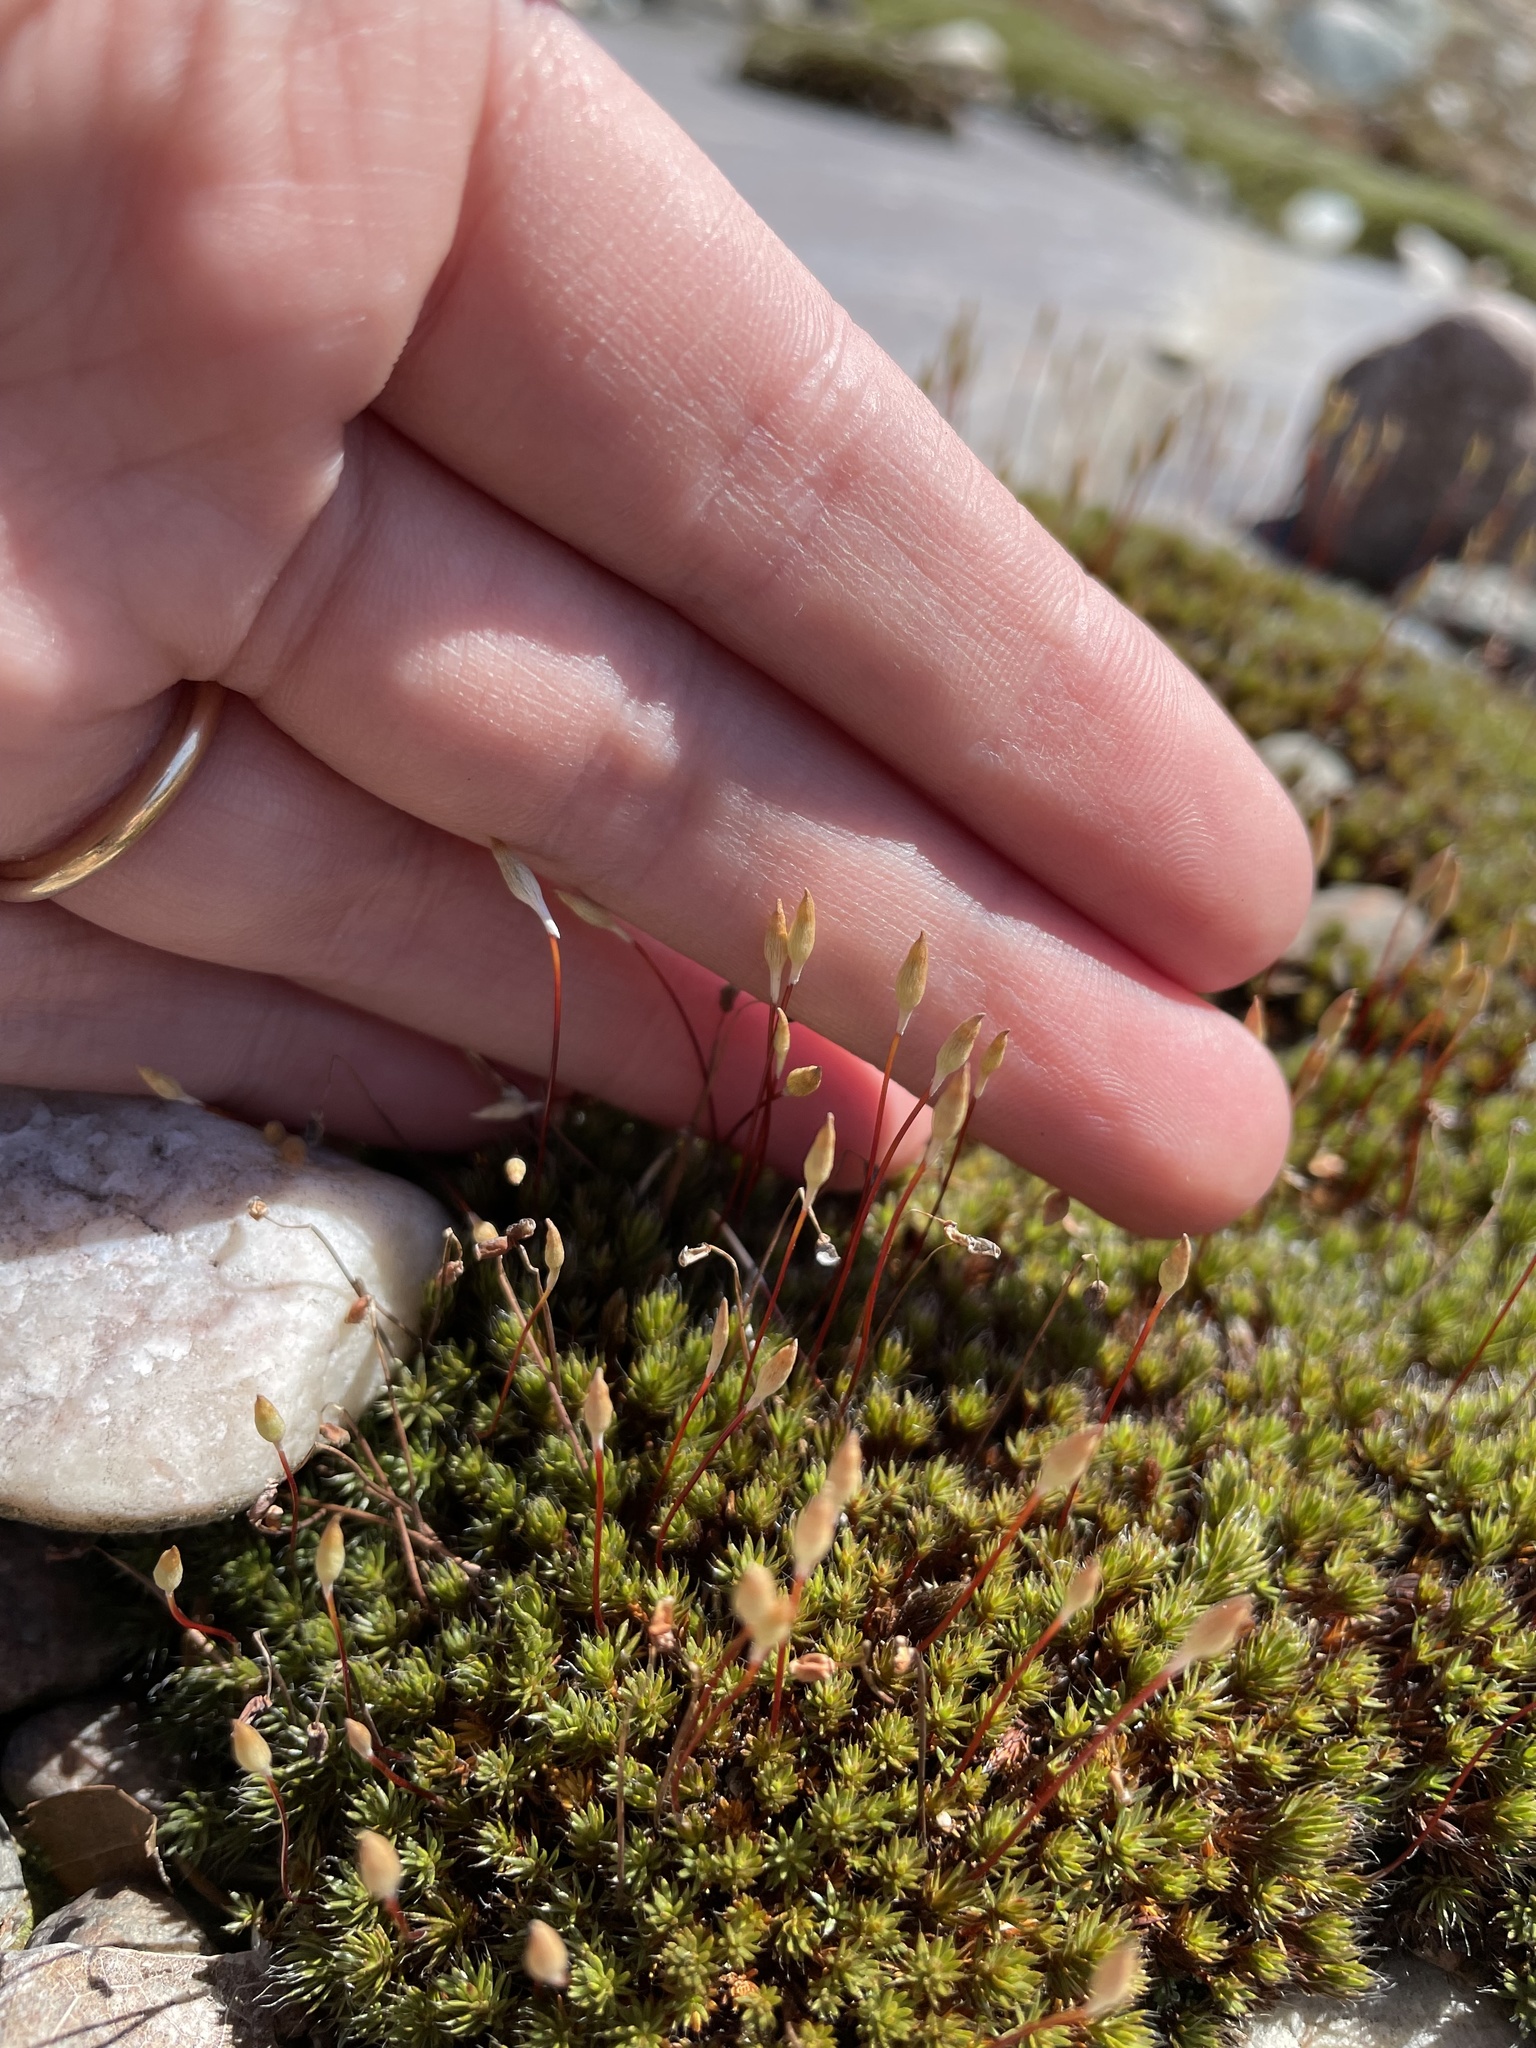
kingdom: Plantae
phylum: Bryophyta
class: Polytrichopsida
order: Polytrichales
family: Polytrichaceae
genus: Polytrichum
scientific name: Polytrichum piliferum
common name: Bristly haircap
